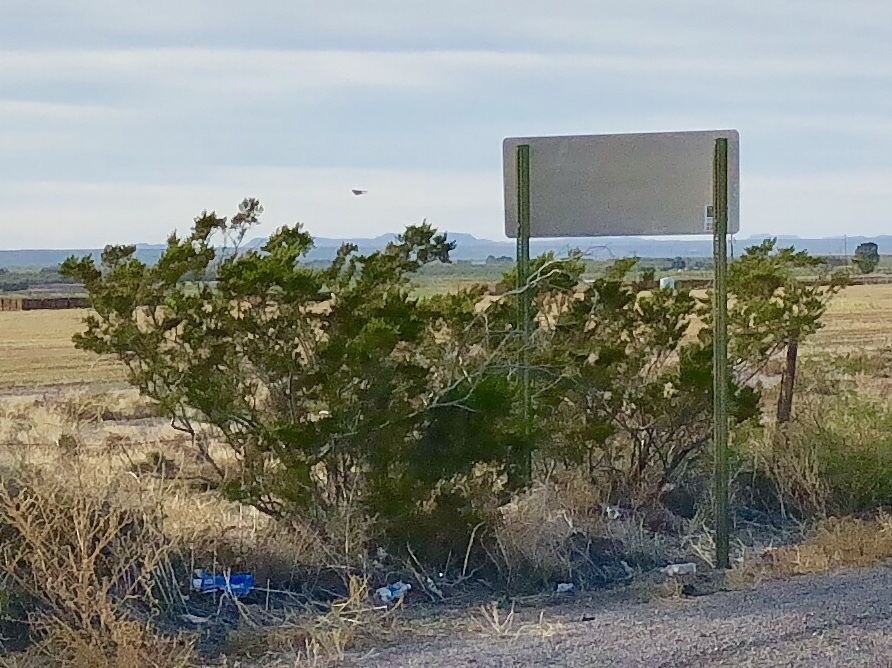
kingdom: Plantae
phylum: Tracheophyta
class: Magnoliopsida
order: Zygophyllales
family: Zygophyllaceae
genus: Larrea
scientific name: Larrea tridentata
